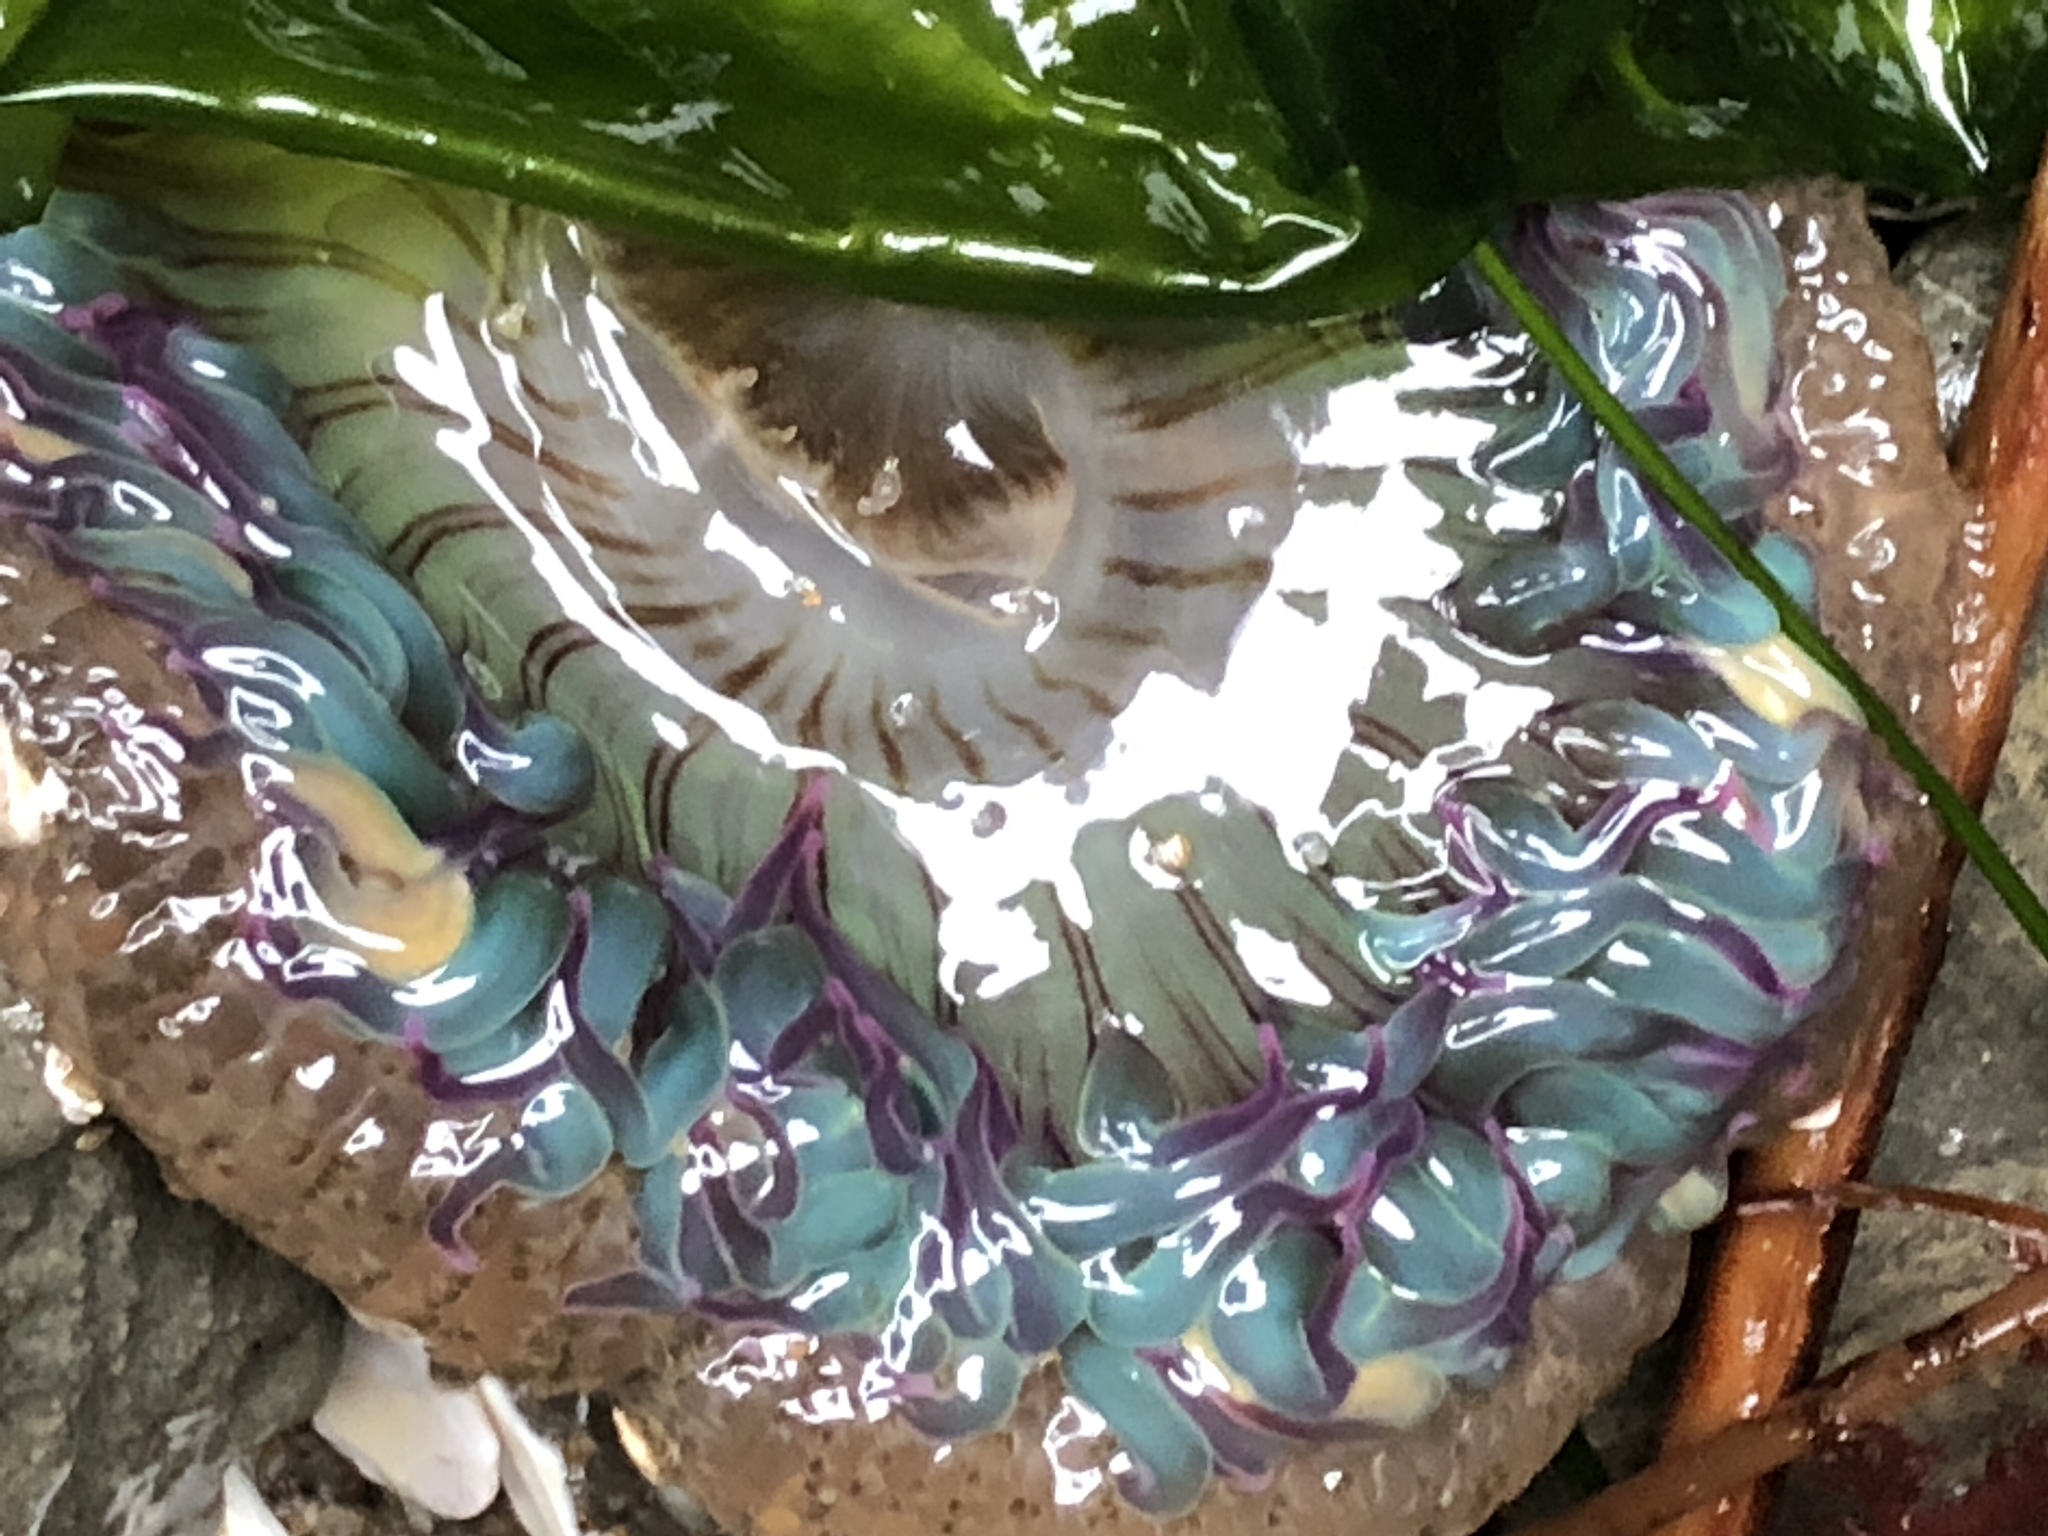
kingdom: Animalia
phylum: Cnidaria
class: Anthozoa
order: Actiniaria
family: Actiniidae
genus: Anthopleura
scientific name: Anthopleura sola
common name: Sun anemone
